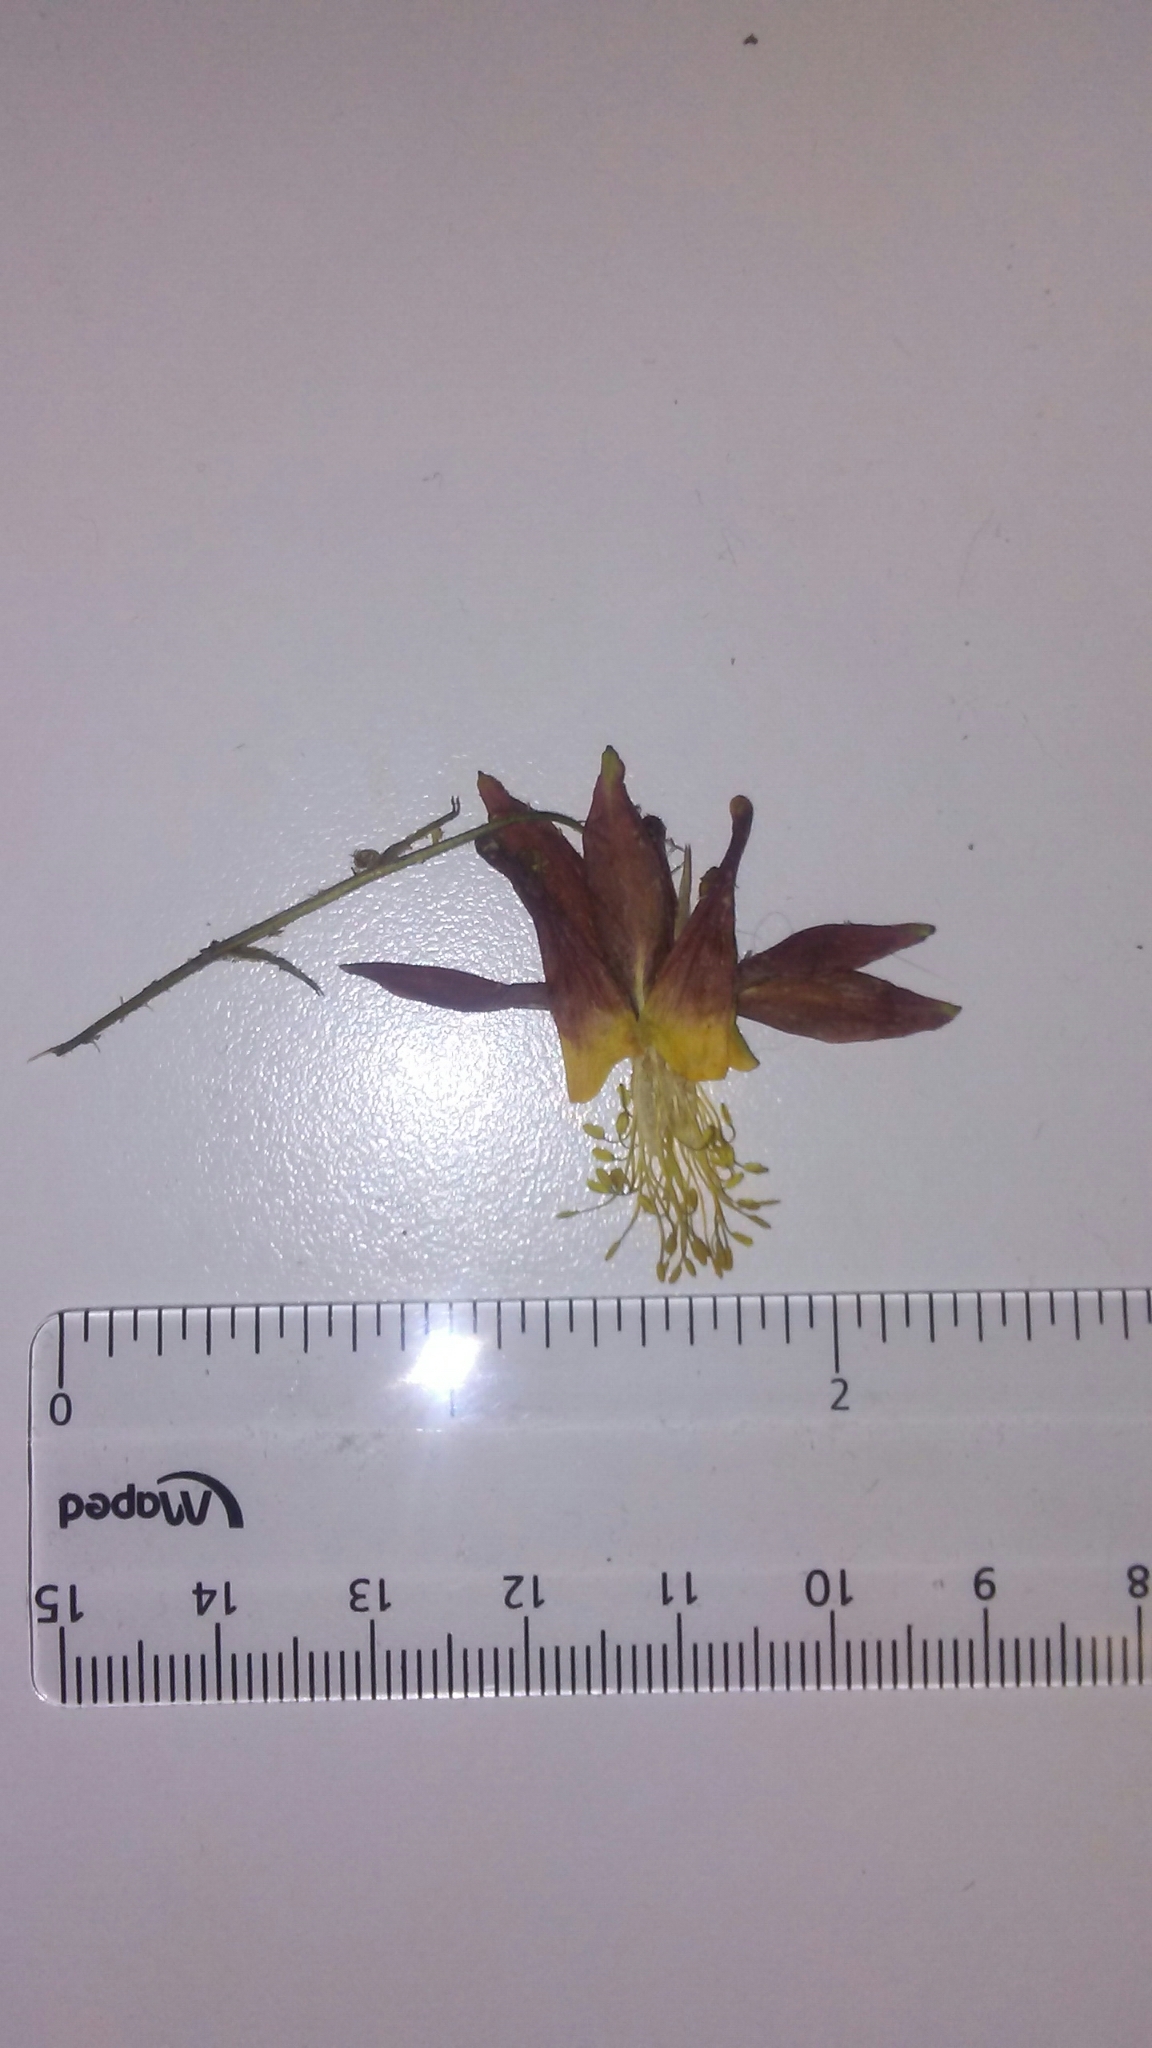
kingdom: Plantae
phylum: Tracheophyta
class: Magnoliopsida
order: Ranunculales
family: Ranunculaceae
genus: Aquilegia
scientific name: Aquilegia formosa
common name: Sitka columbine
